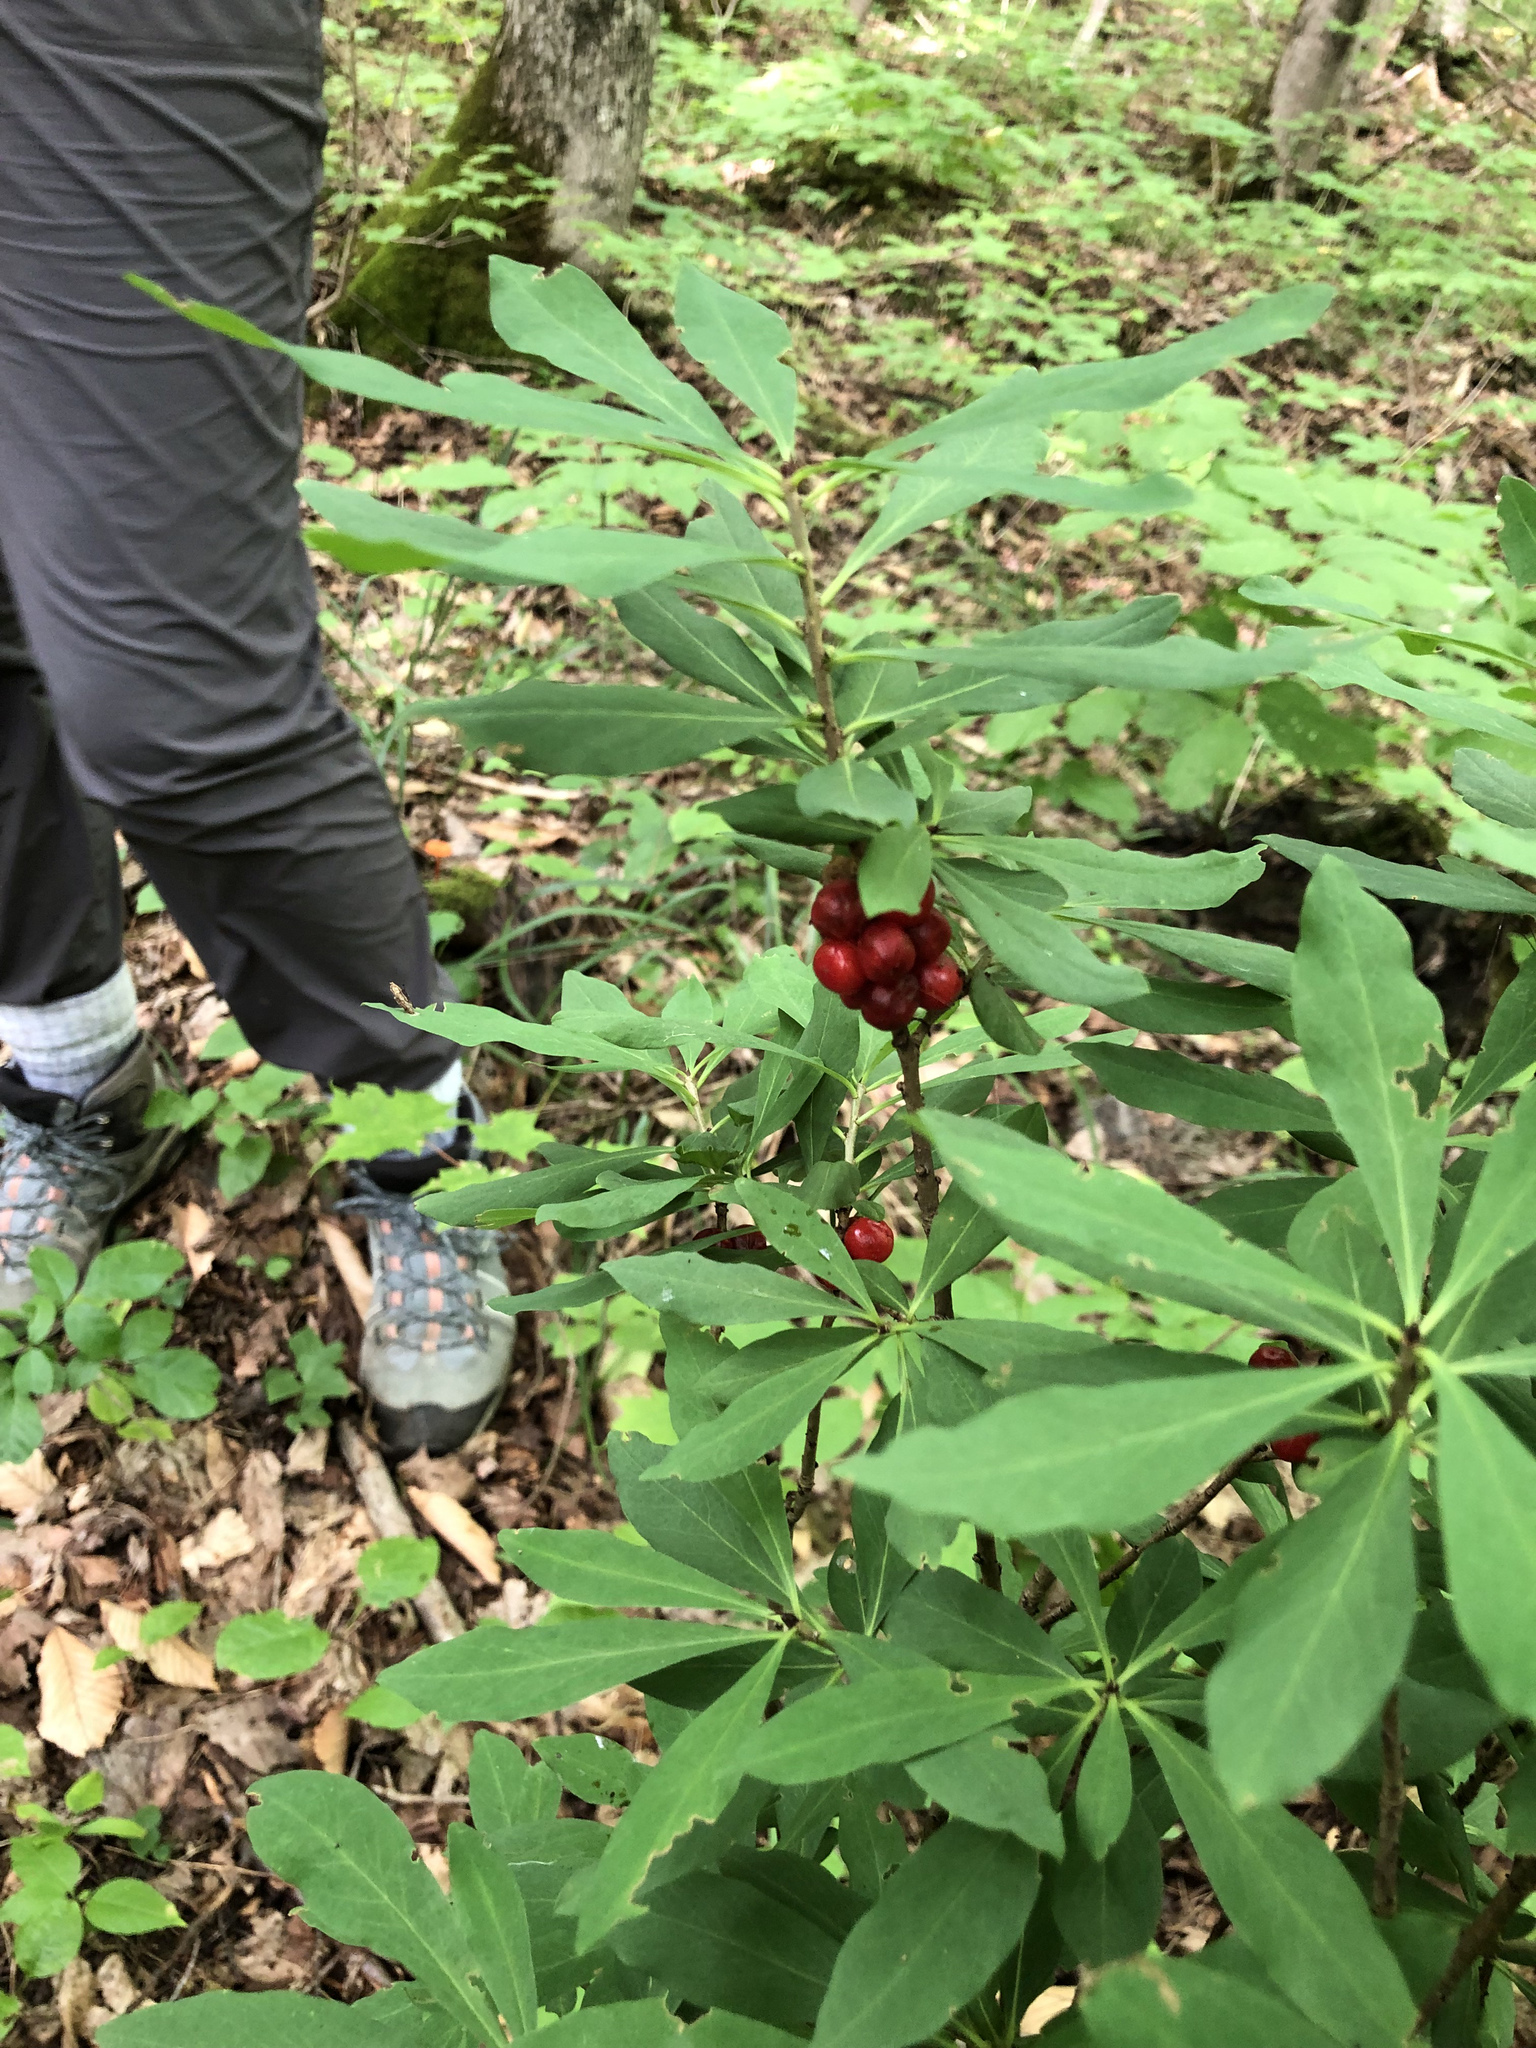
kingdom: Plantae
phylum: Tracheophyta
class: Magnoliopsida
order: Malvales
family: Thymelaeaceae
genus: Daphne
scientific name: Daphne mezereum
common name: Mezereon
